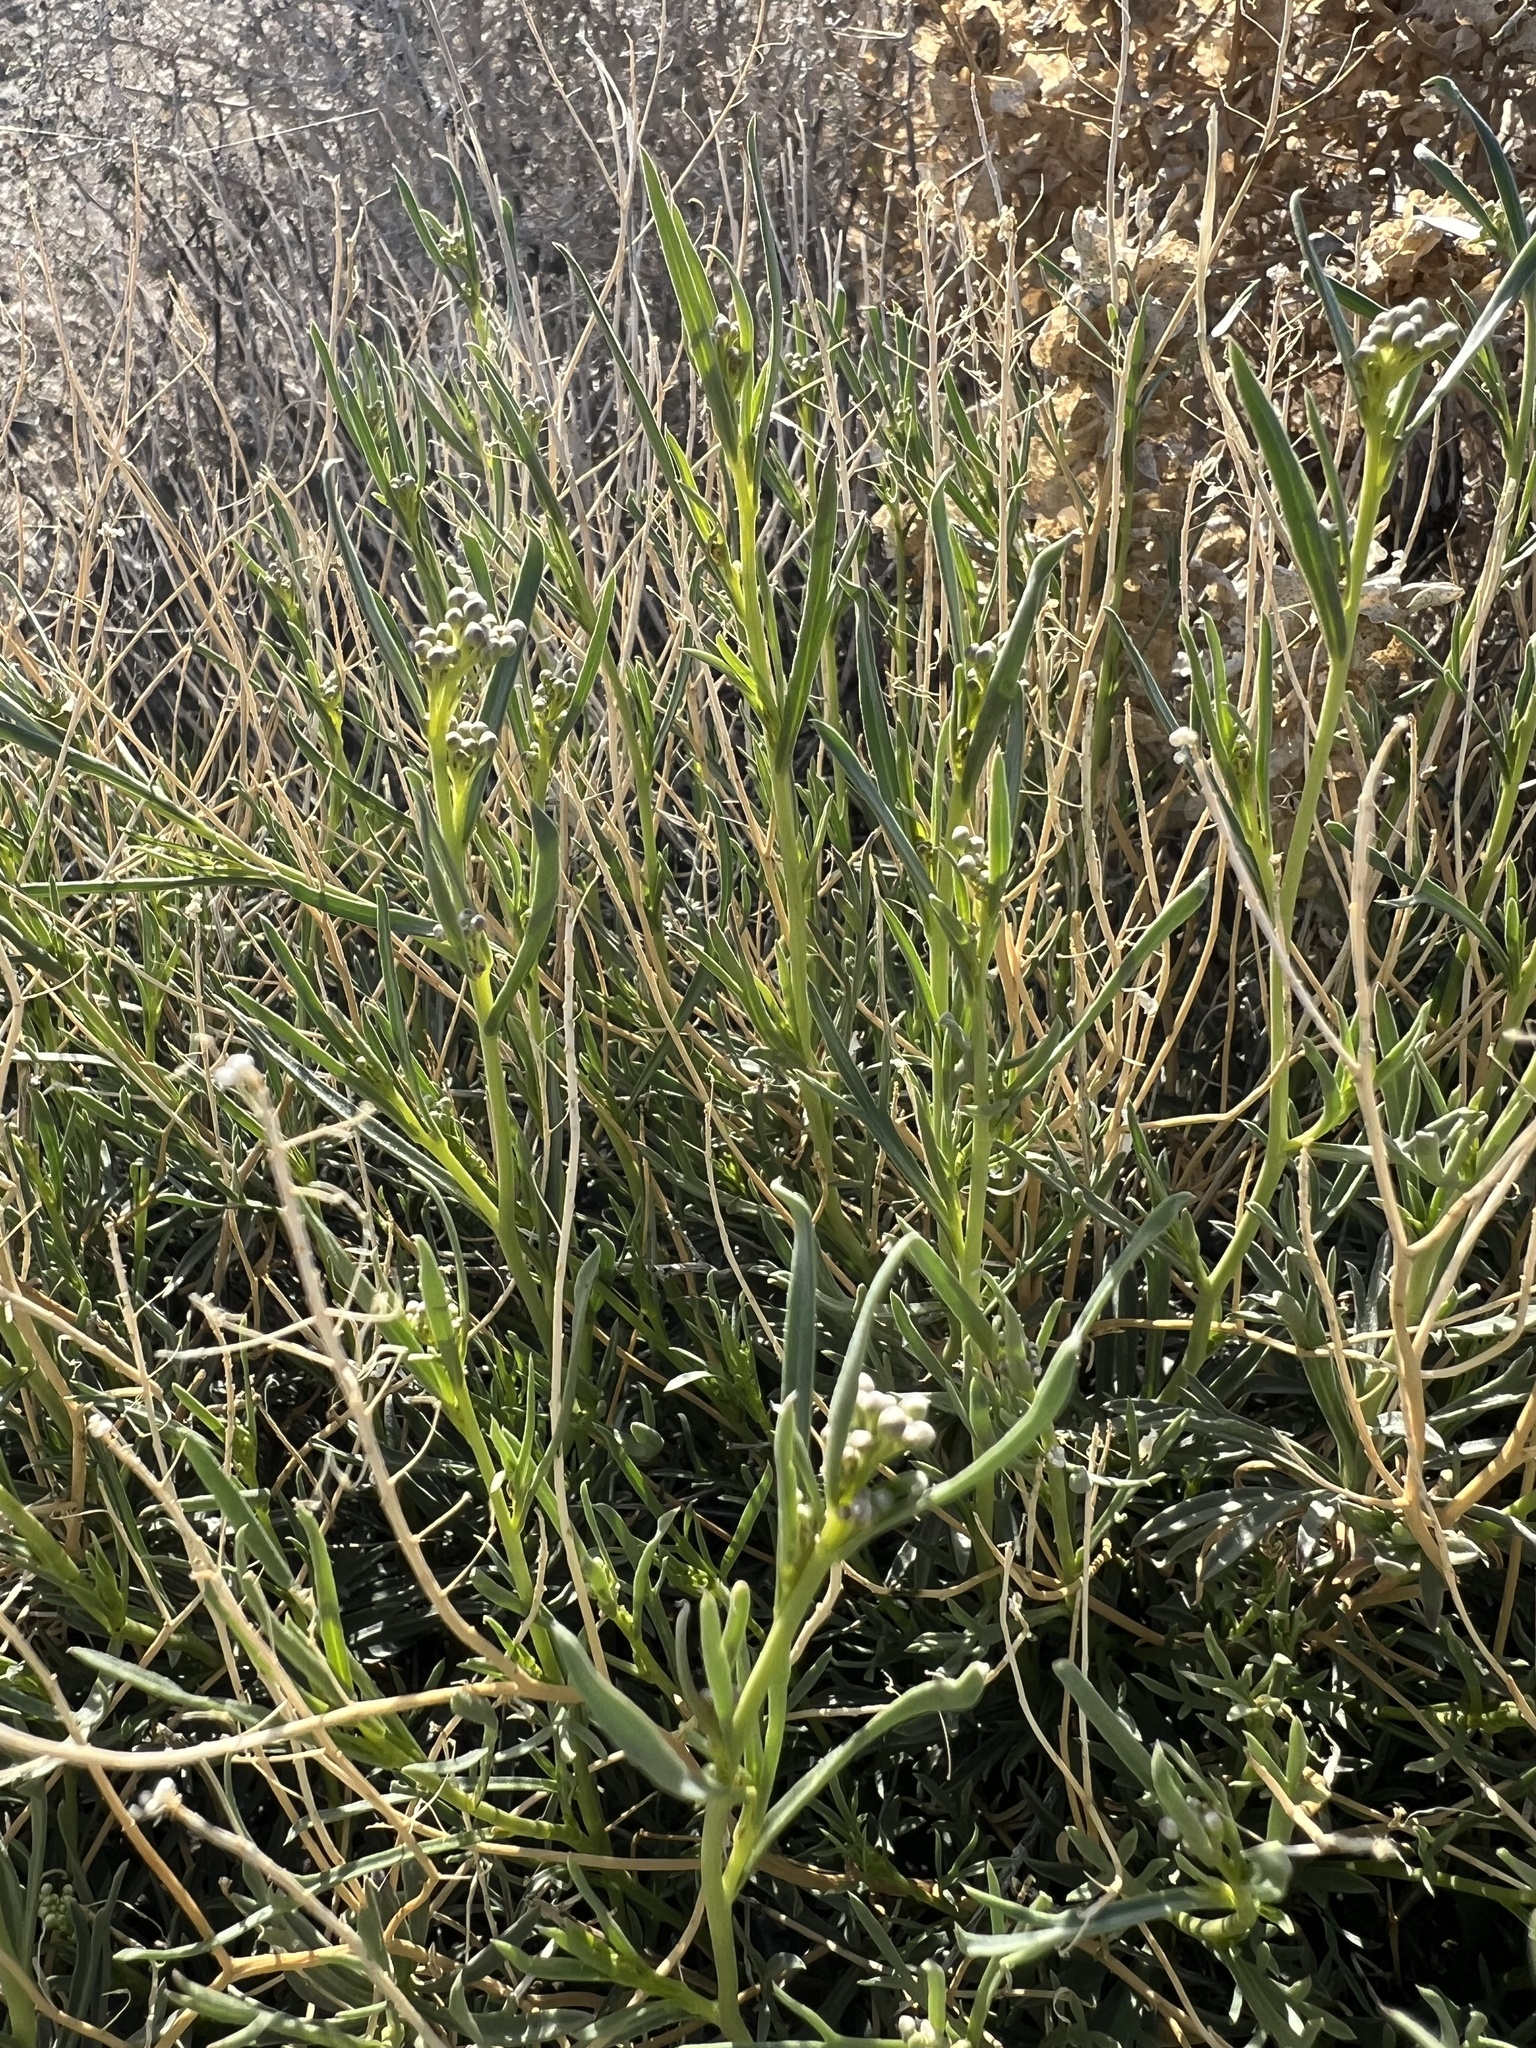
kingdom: Plantae
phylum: Tracheophyta
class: Magnoliopsida
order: Brassicales
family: Brassicaceae
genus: Lepidium
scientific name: Lepidium fremontii
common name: Fremont's pepperwort
